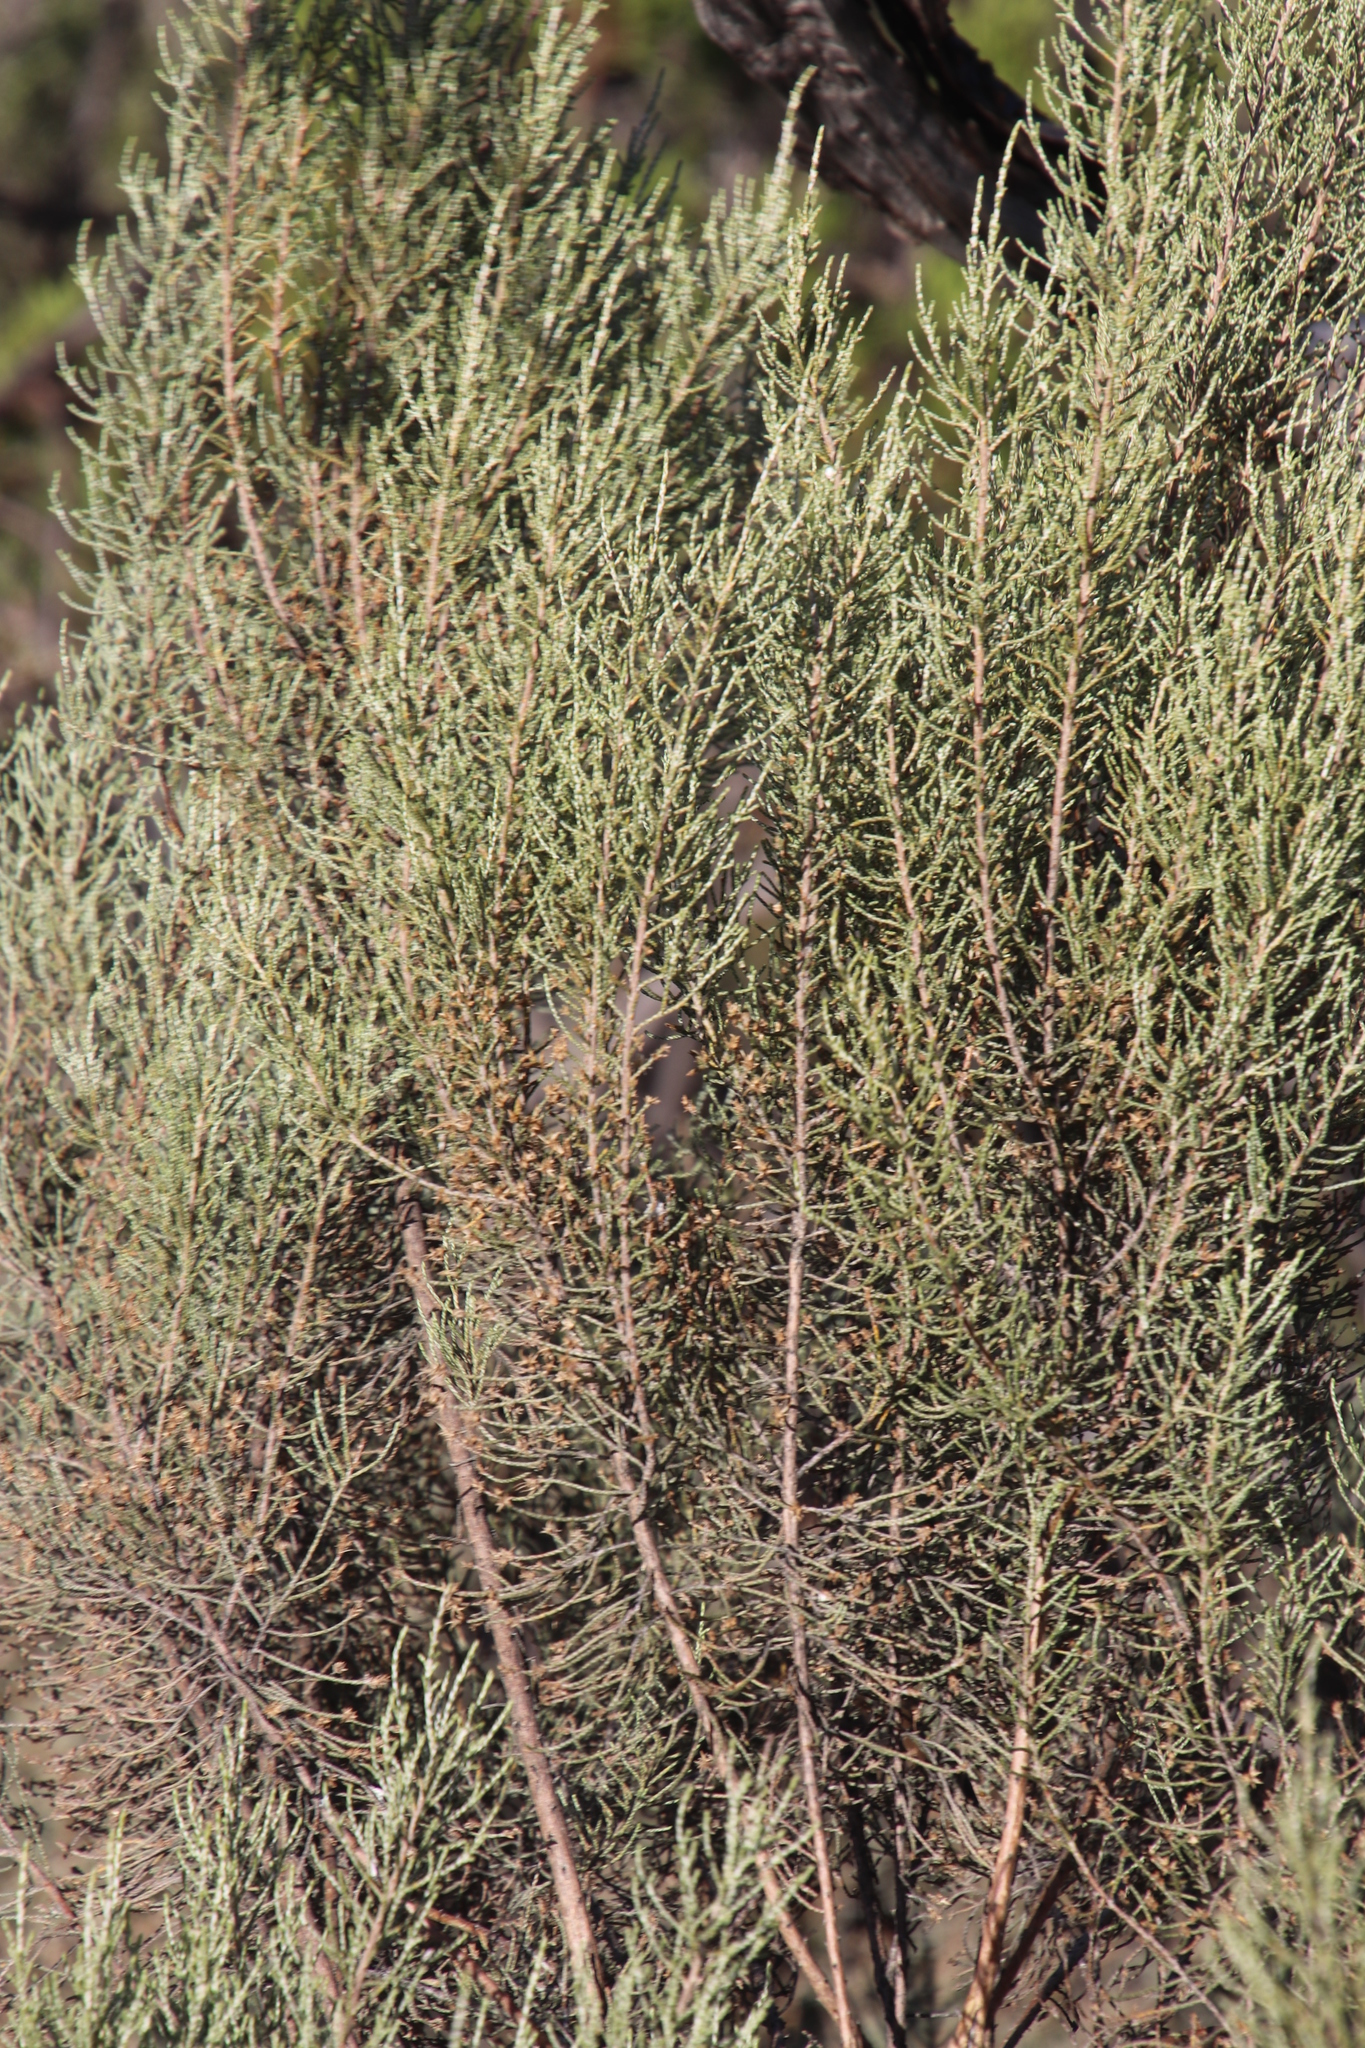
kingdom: Plantae
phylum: Tracheophyta
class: Magnoliopsida
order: Asterales
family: Asteraceae
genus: Dicerothamnus
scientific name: Dicerothamnus rhinocerotis
